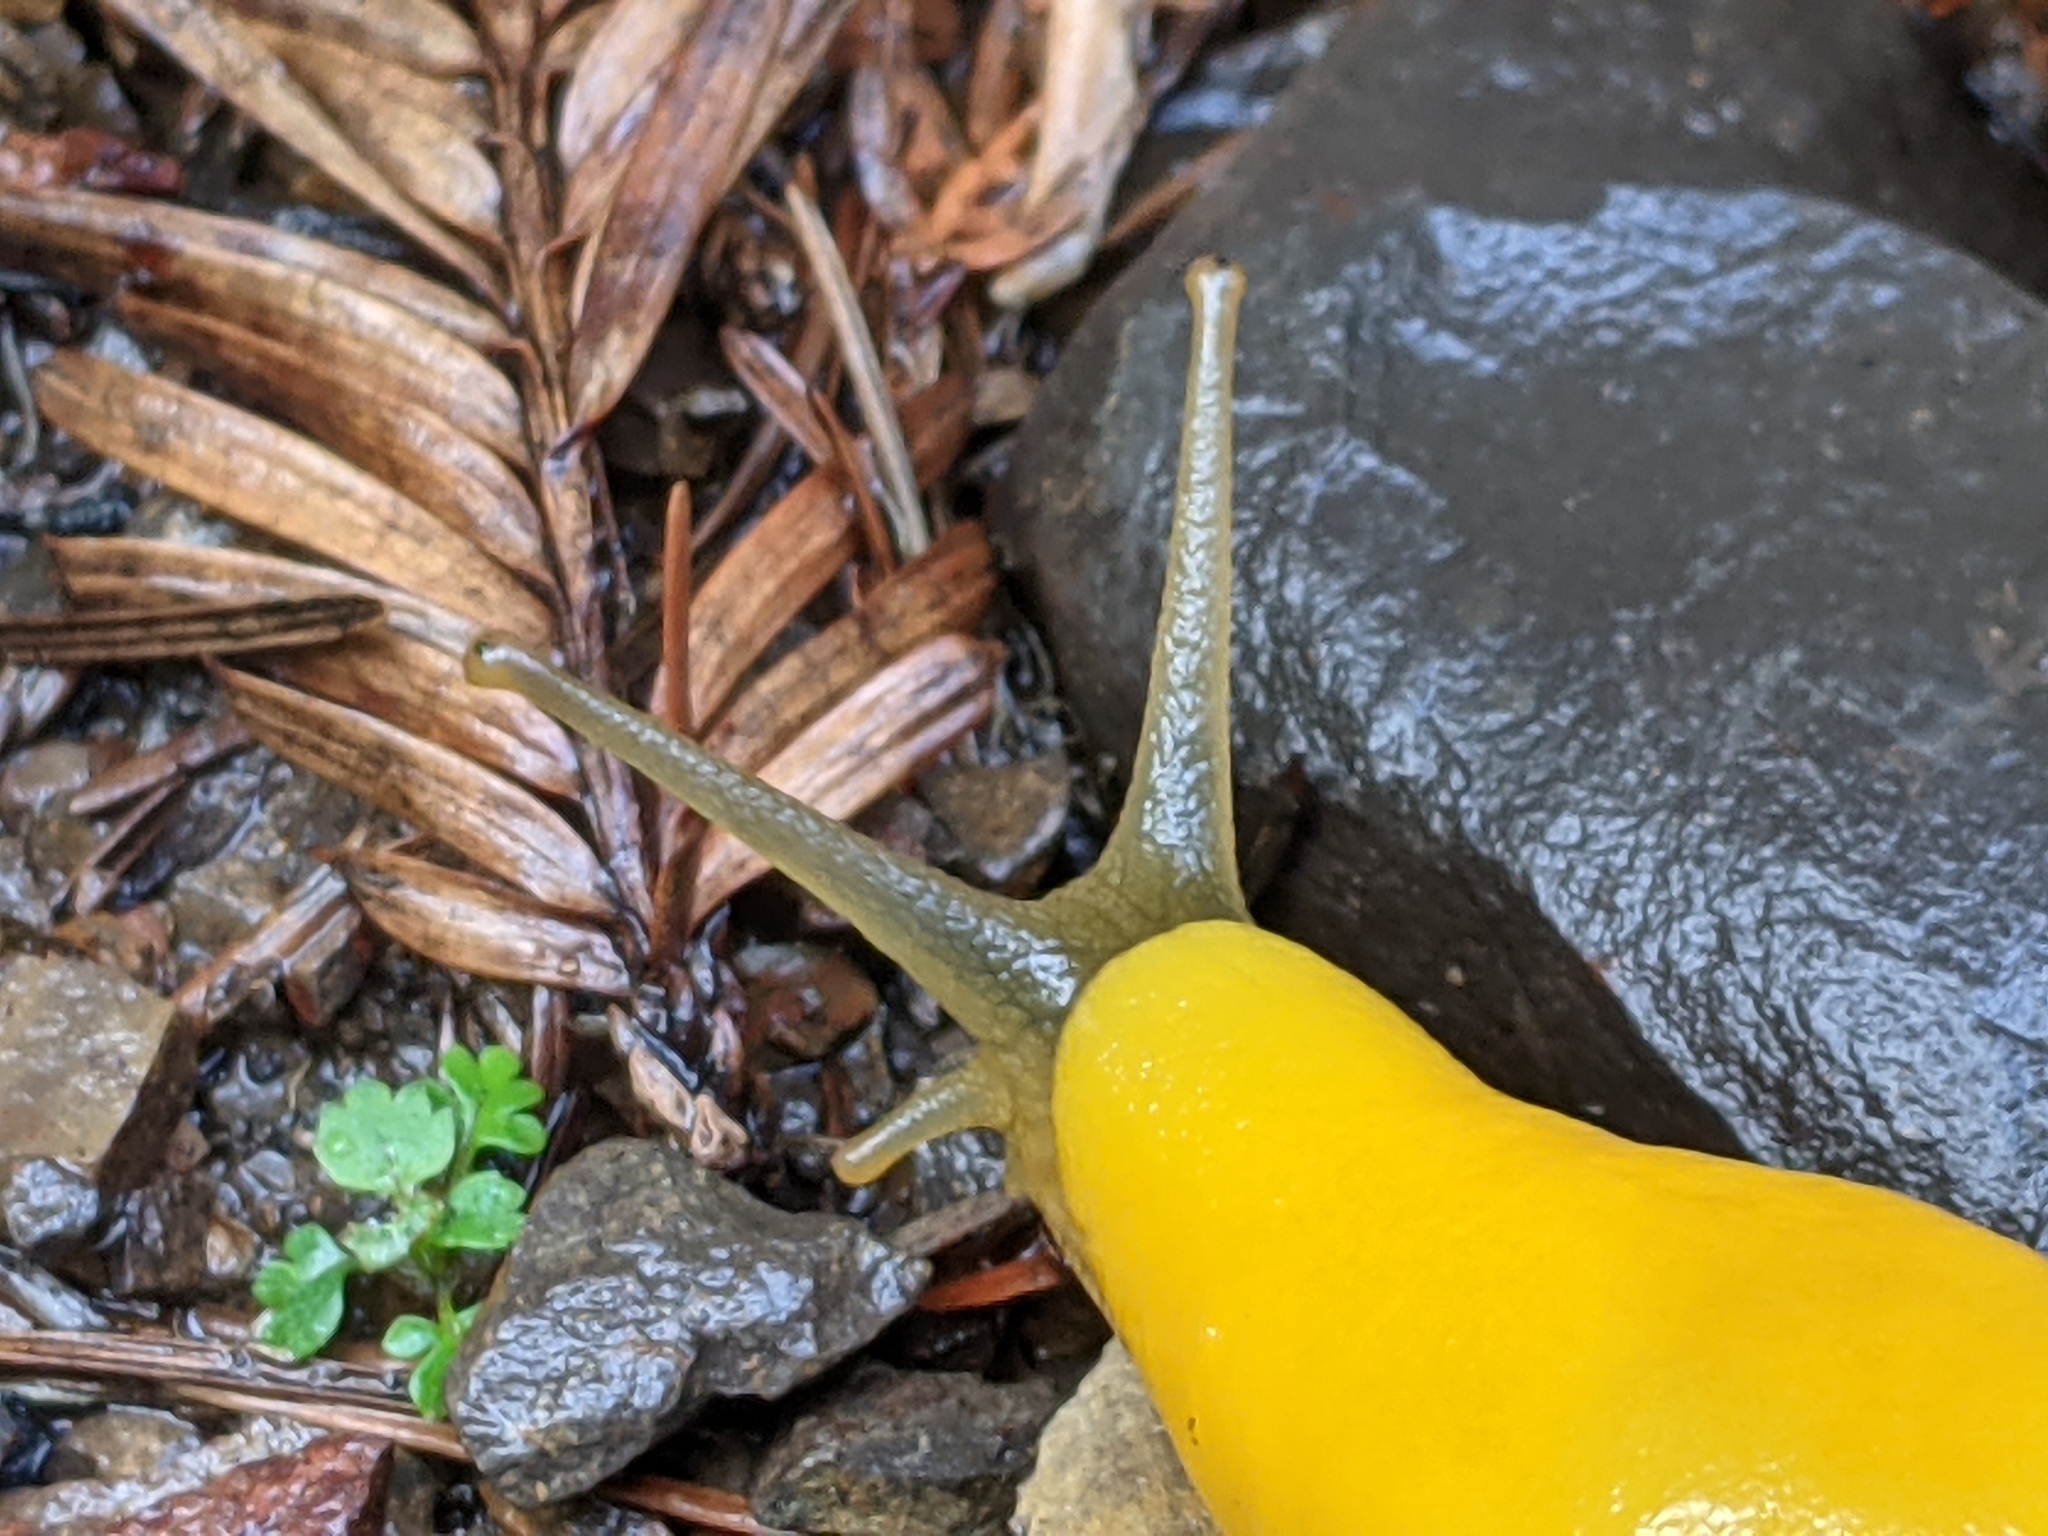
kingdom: Animalia
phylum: Mollusca
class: Gastropoda
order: Stylommatophora
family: Ariolimacidae
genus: Ariolimax
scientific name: Ariolimax californicus
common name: California banana slug
